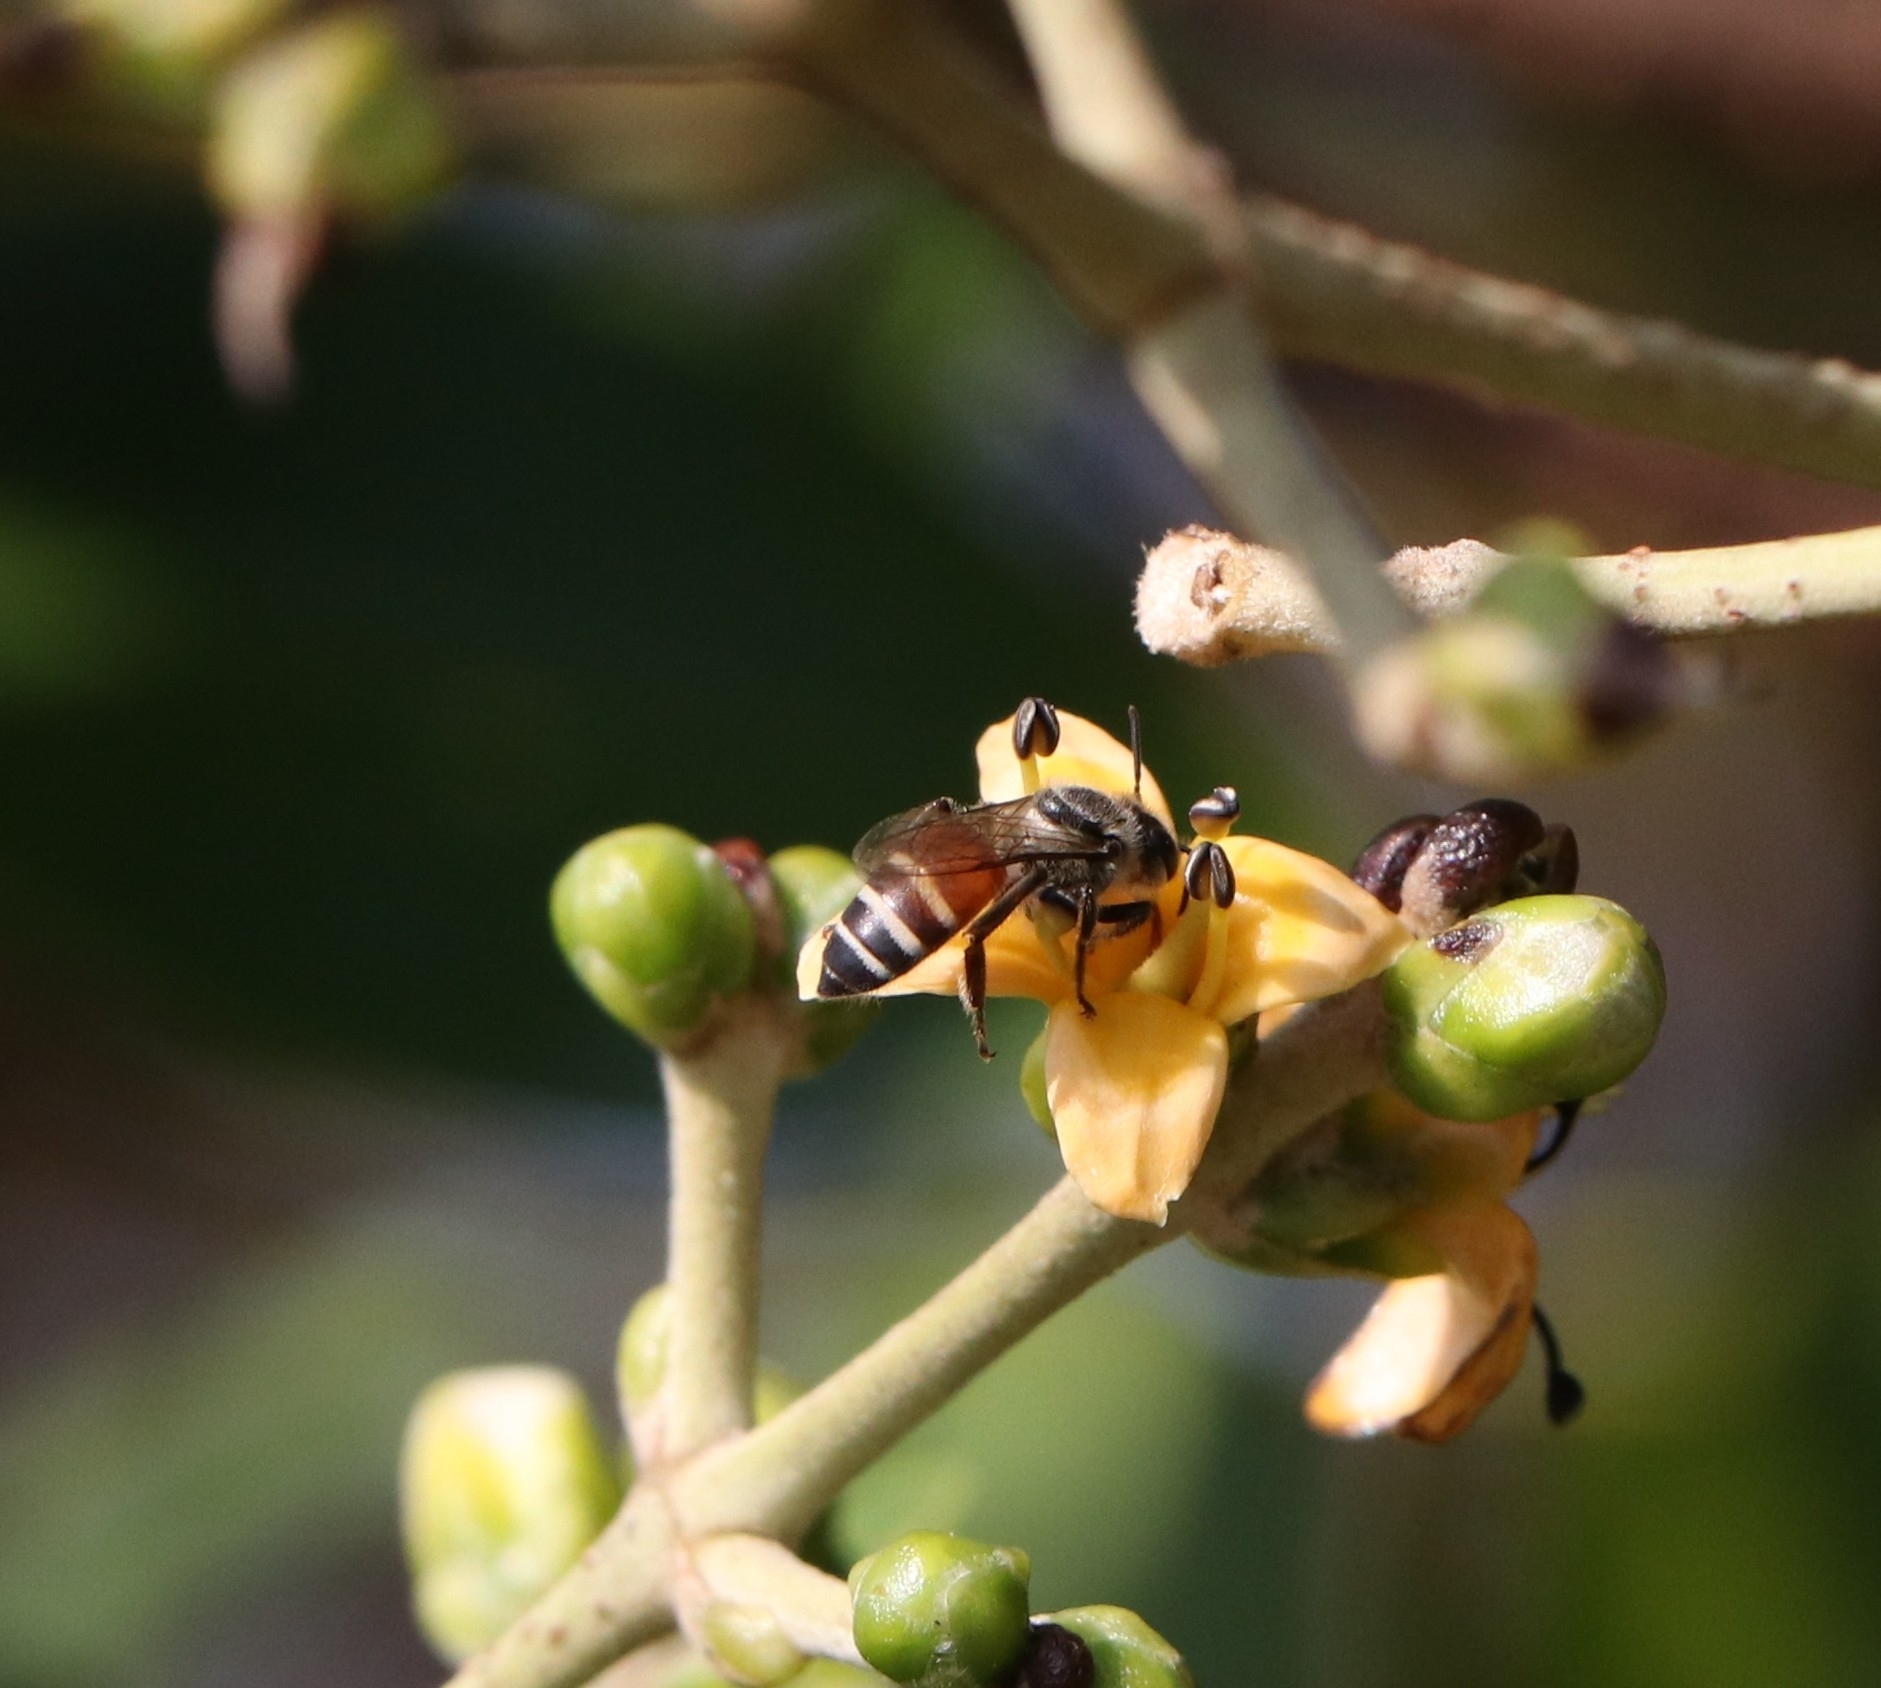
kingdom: Animalia
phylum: Arthropoda
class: Insecta
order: Hymenoptera
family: Apidae
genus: Apis
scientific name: Apis florea
